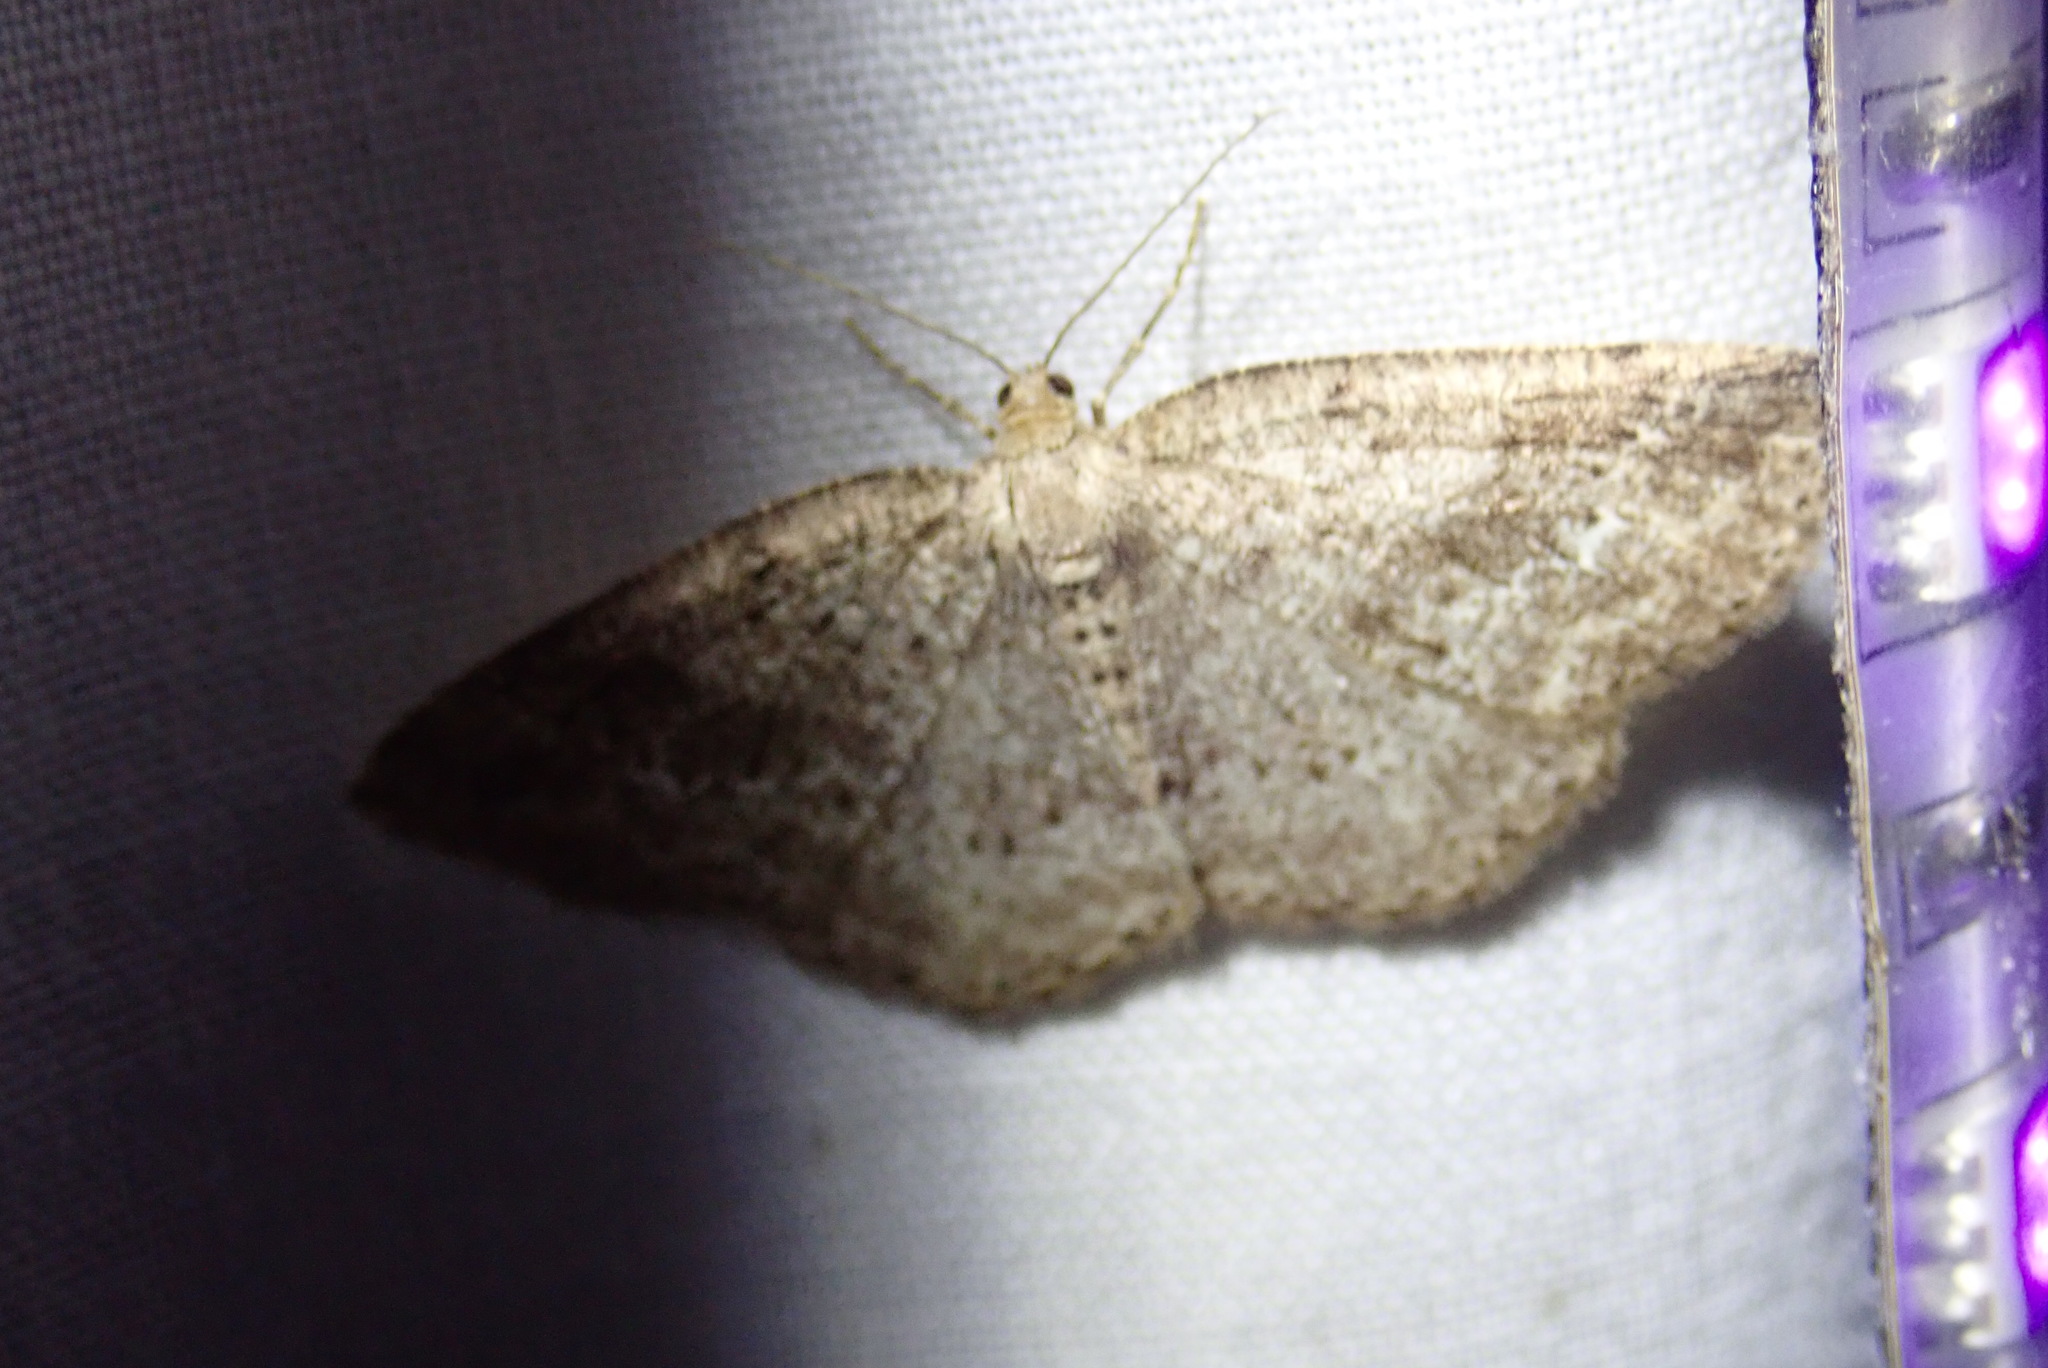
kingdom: Animalia
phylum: Arthropoda
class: Insecta
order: Lepidoptera
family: Geometridae
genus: Homochlodes
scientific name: Homochlodes fritillaria
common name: Pale homochlodes
